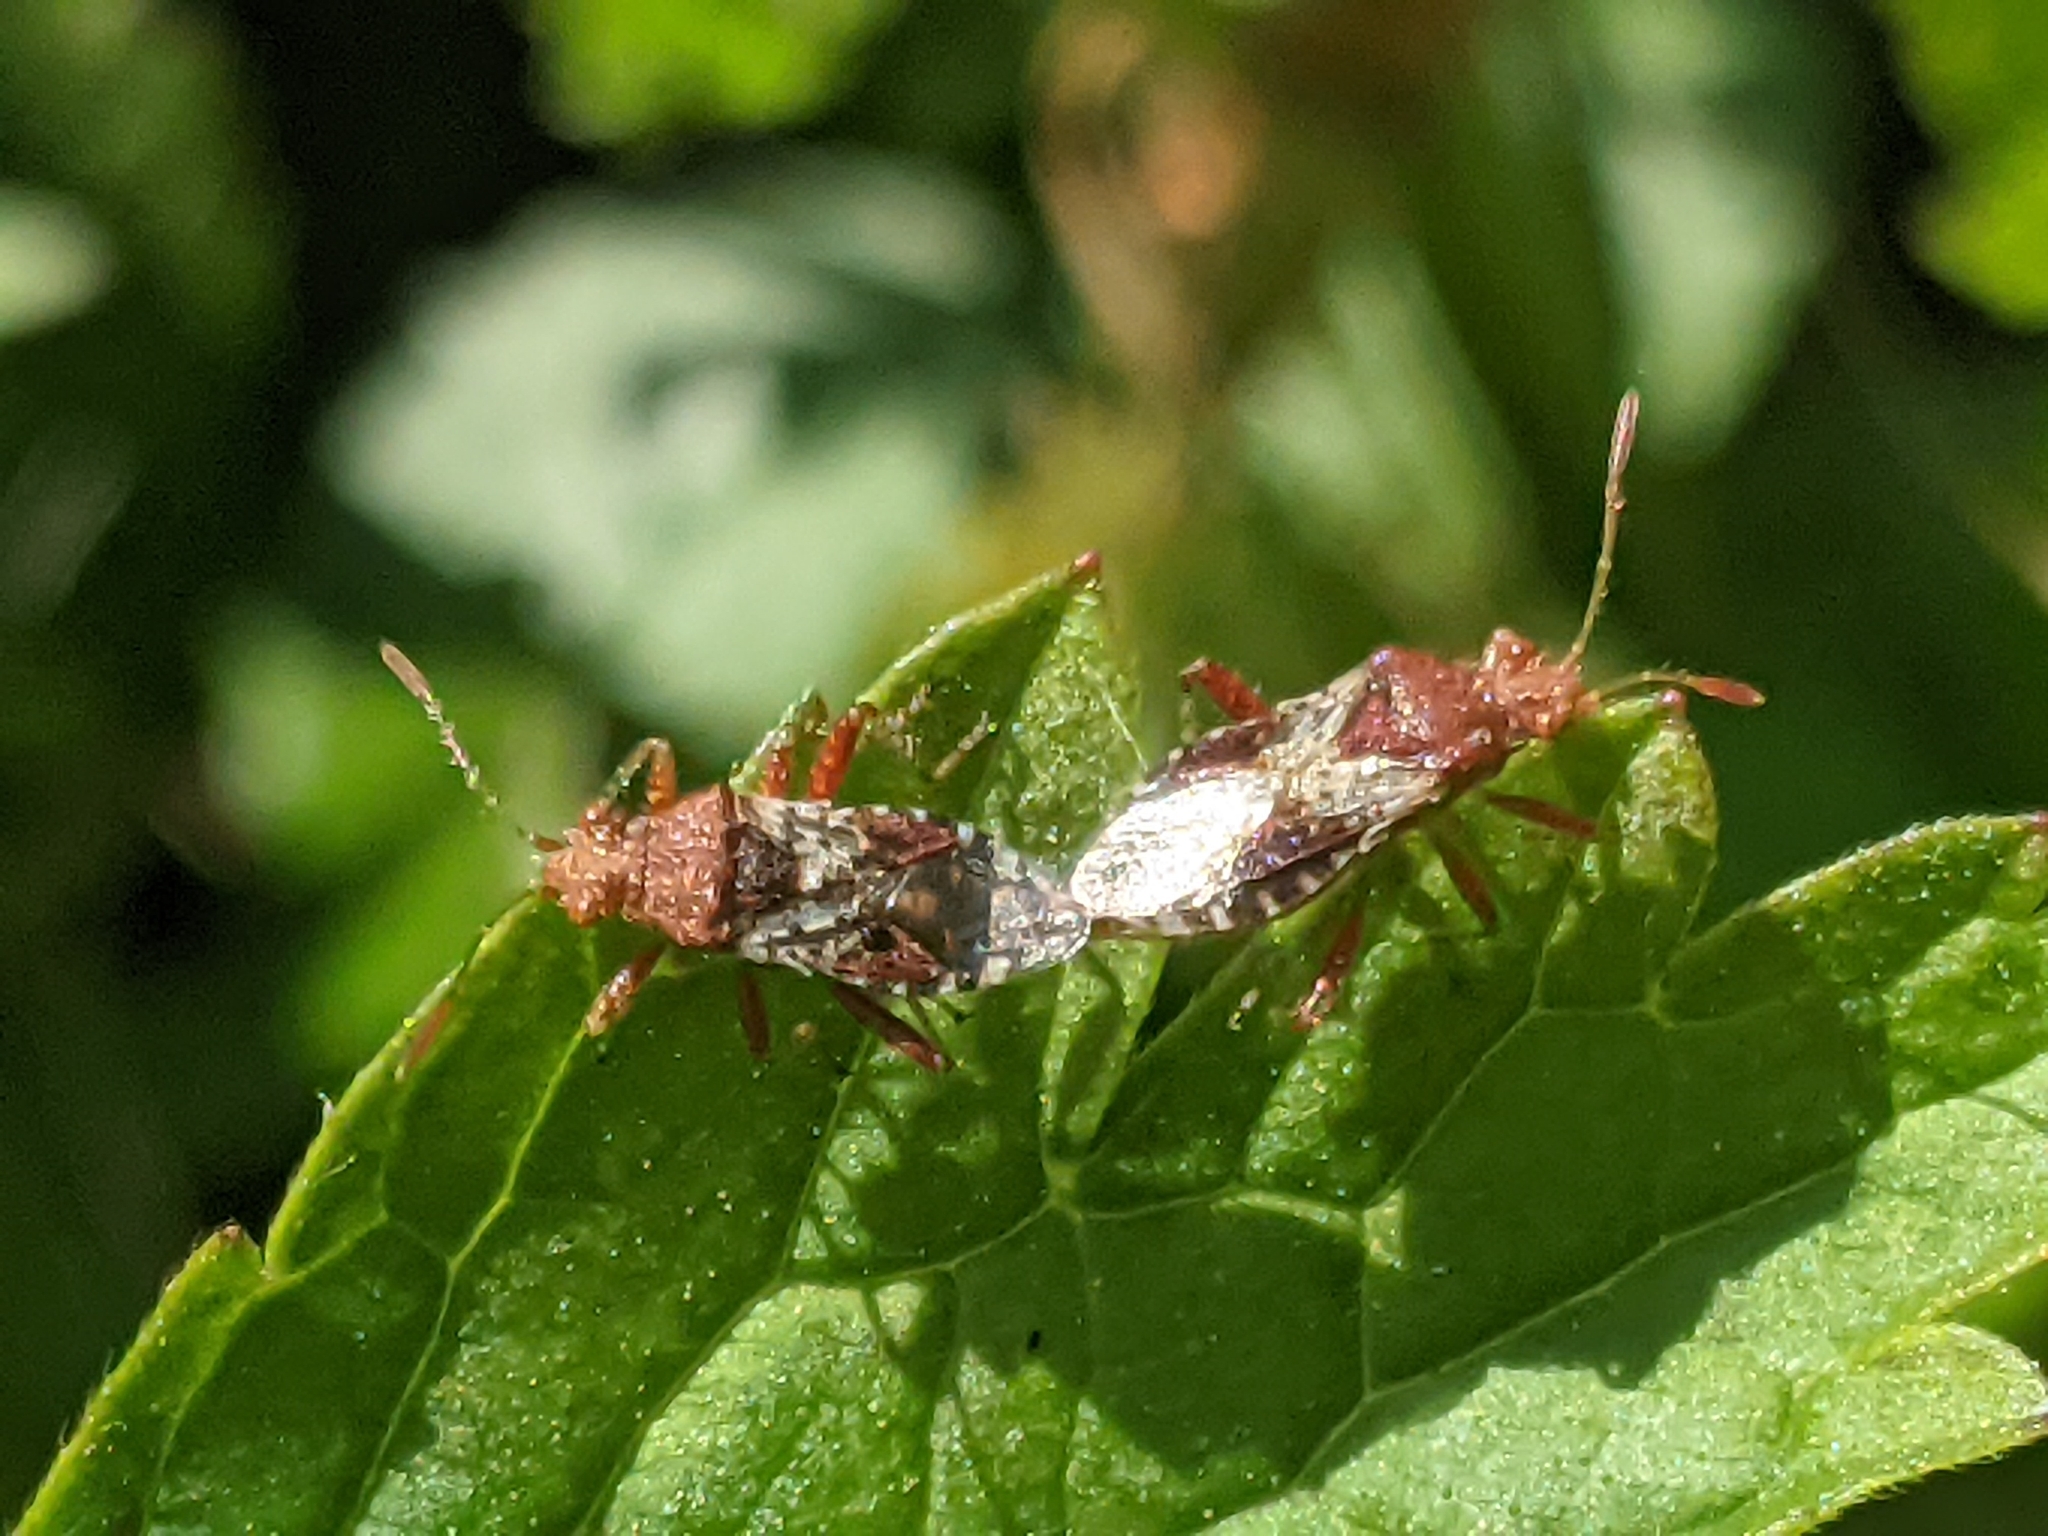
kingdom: Animalia
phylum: Arthropoda
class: Insecta
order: Hemiptera
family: Rhopalidae
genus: Rhopalus
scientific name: Rhopalus subrufus
